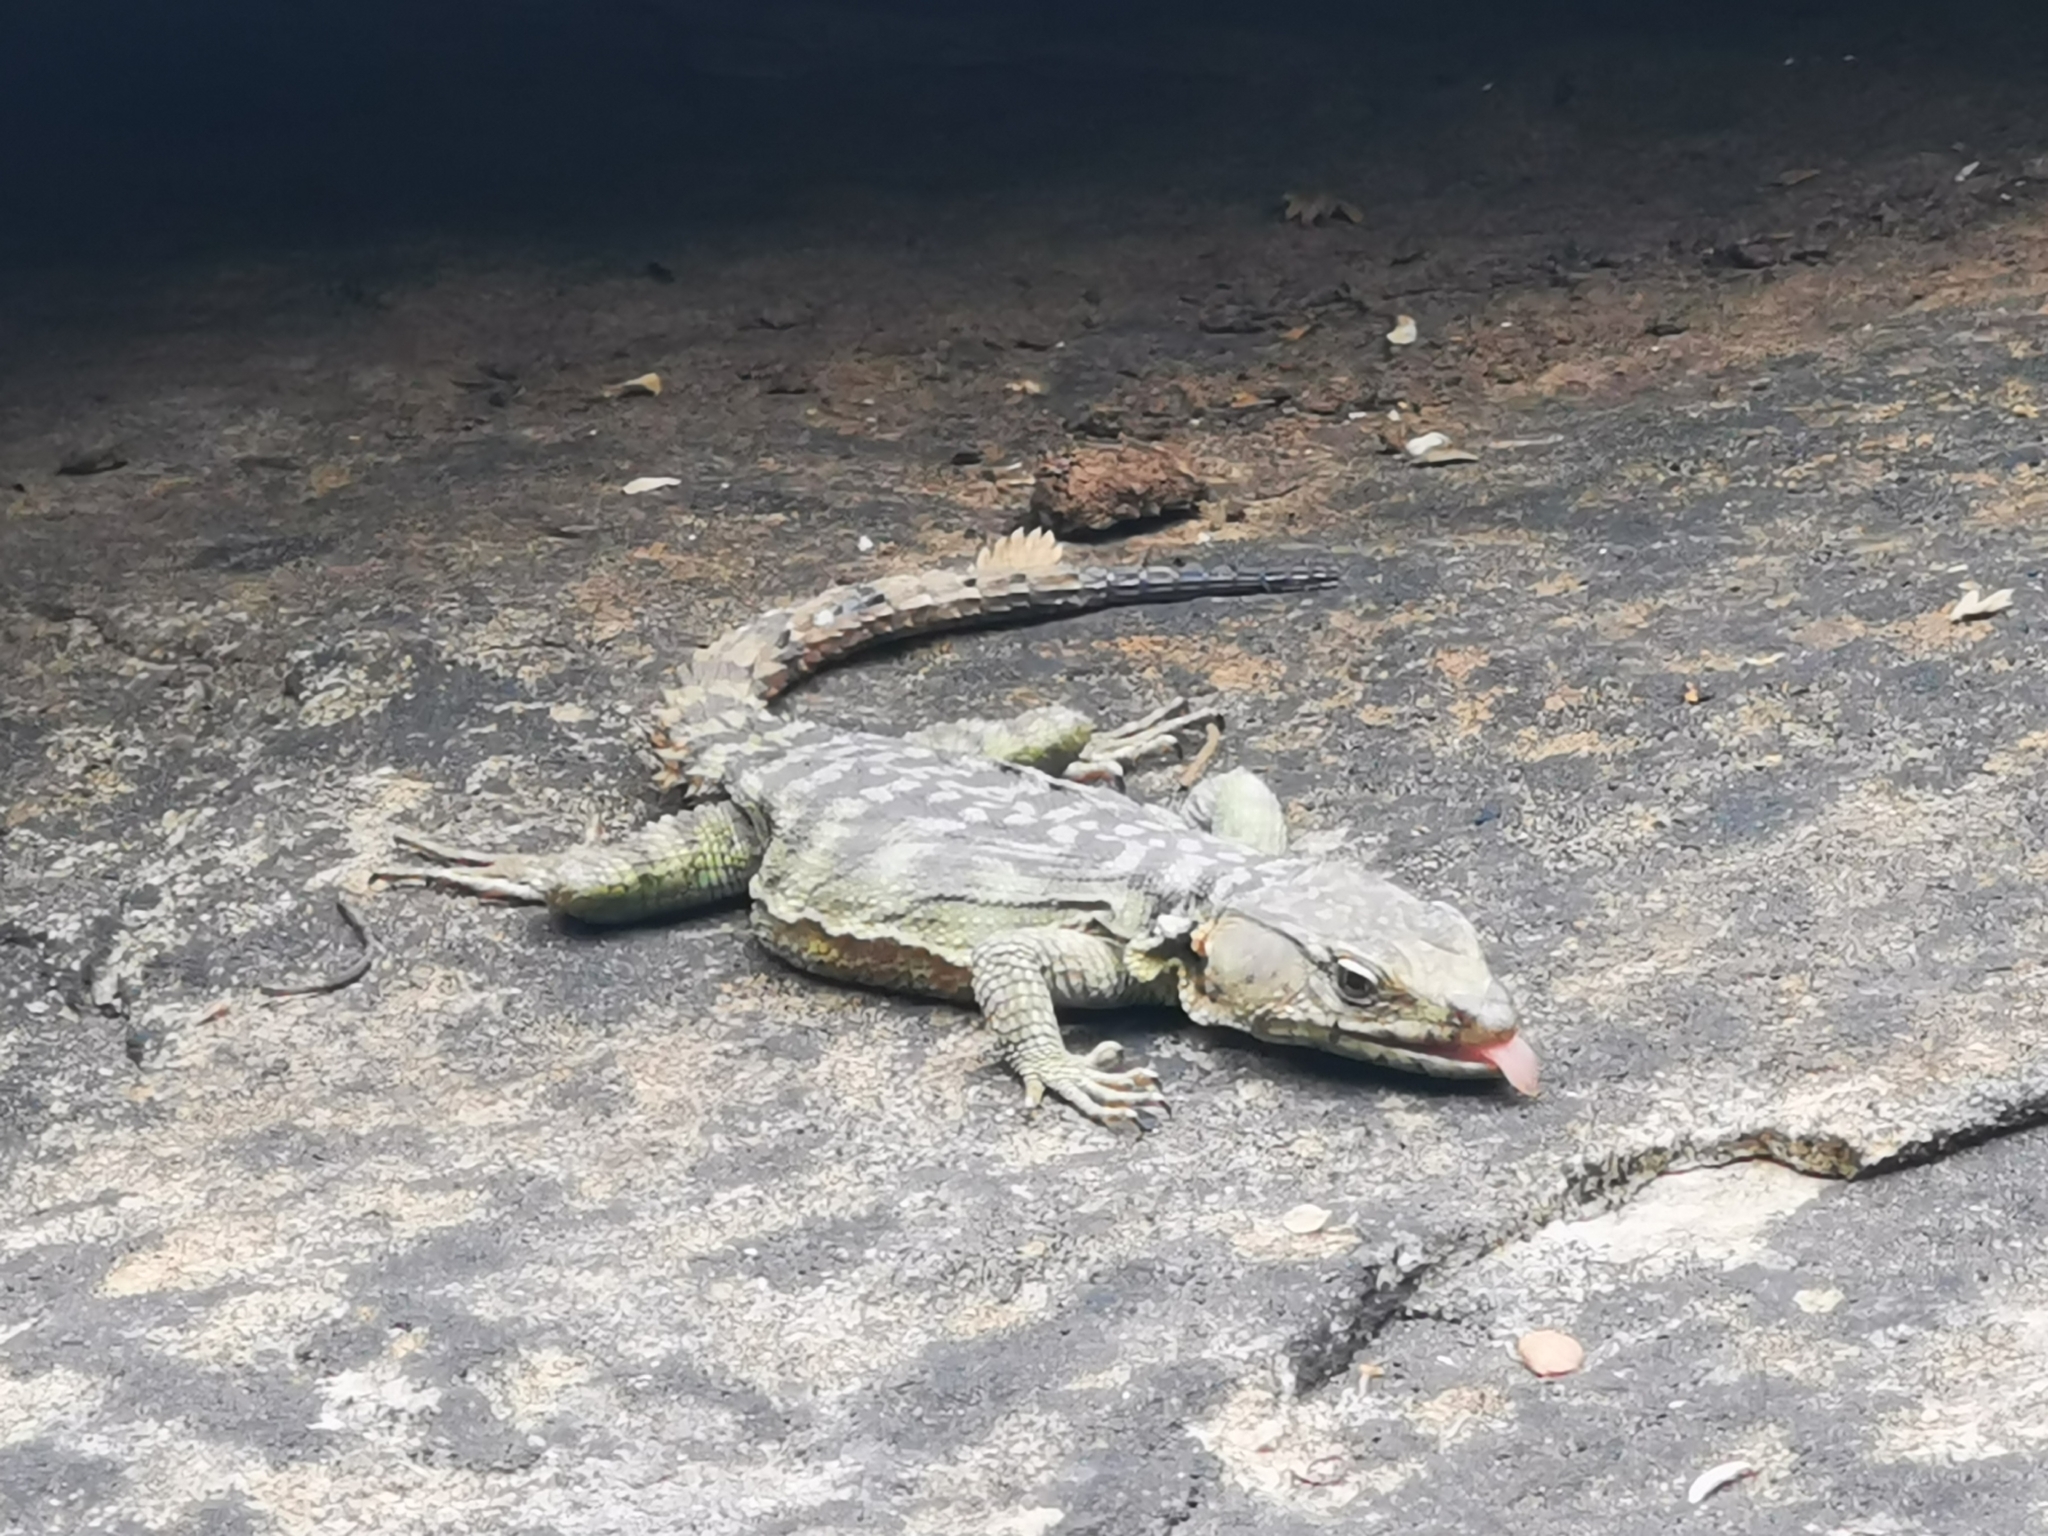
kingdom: Animalia
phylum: Chordata
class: Squamata
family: Cordylidae
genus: Pseudocordylus
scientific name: Pseudocordylus subviridis
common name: Drakensberg crag lizard
